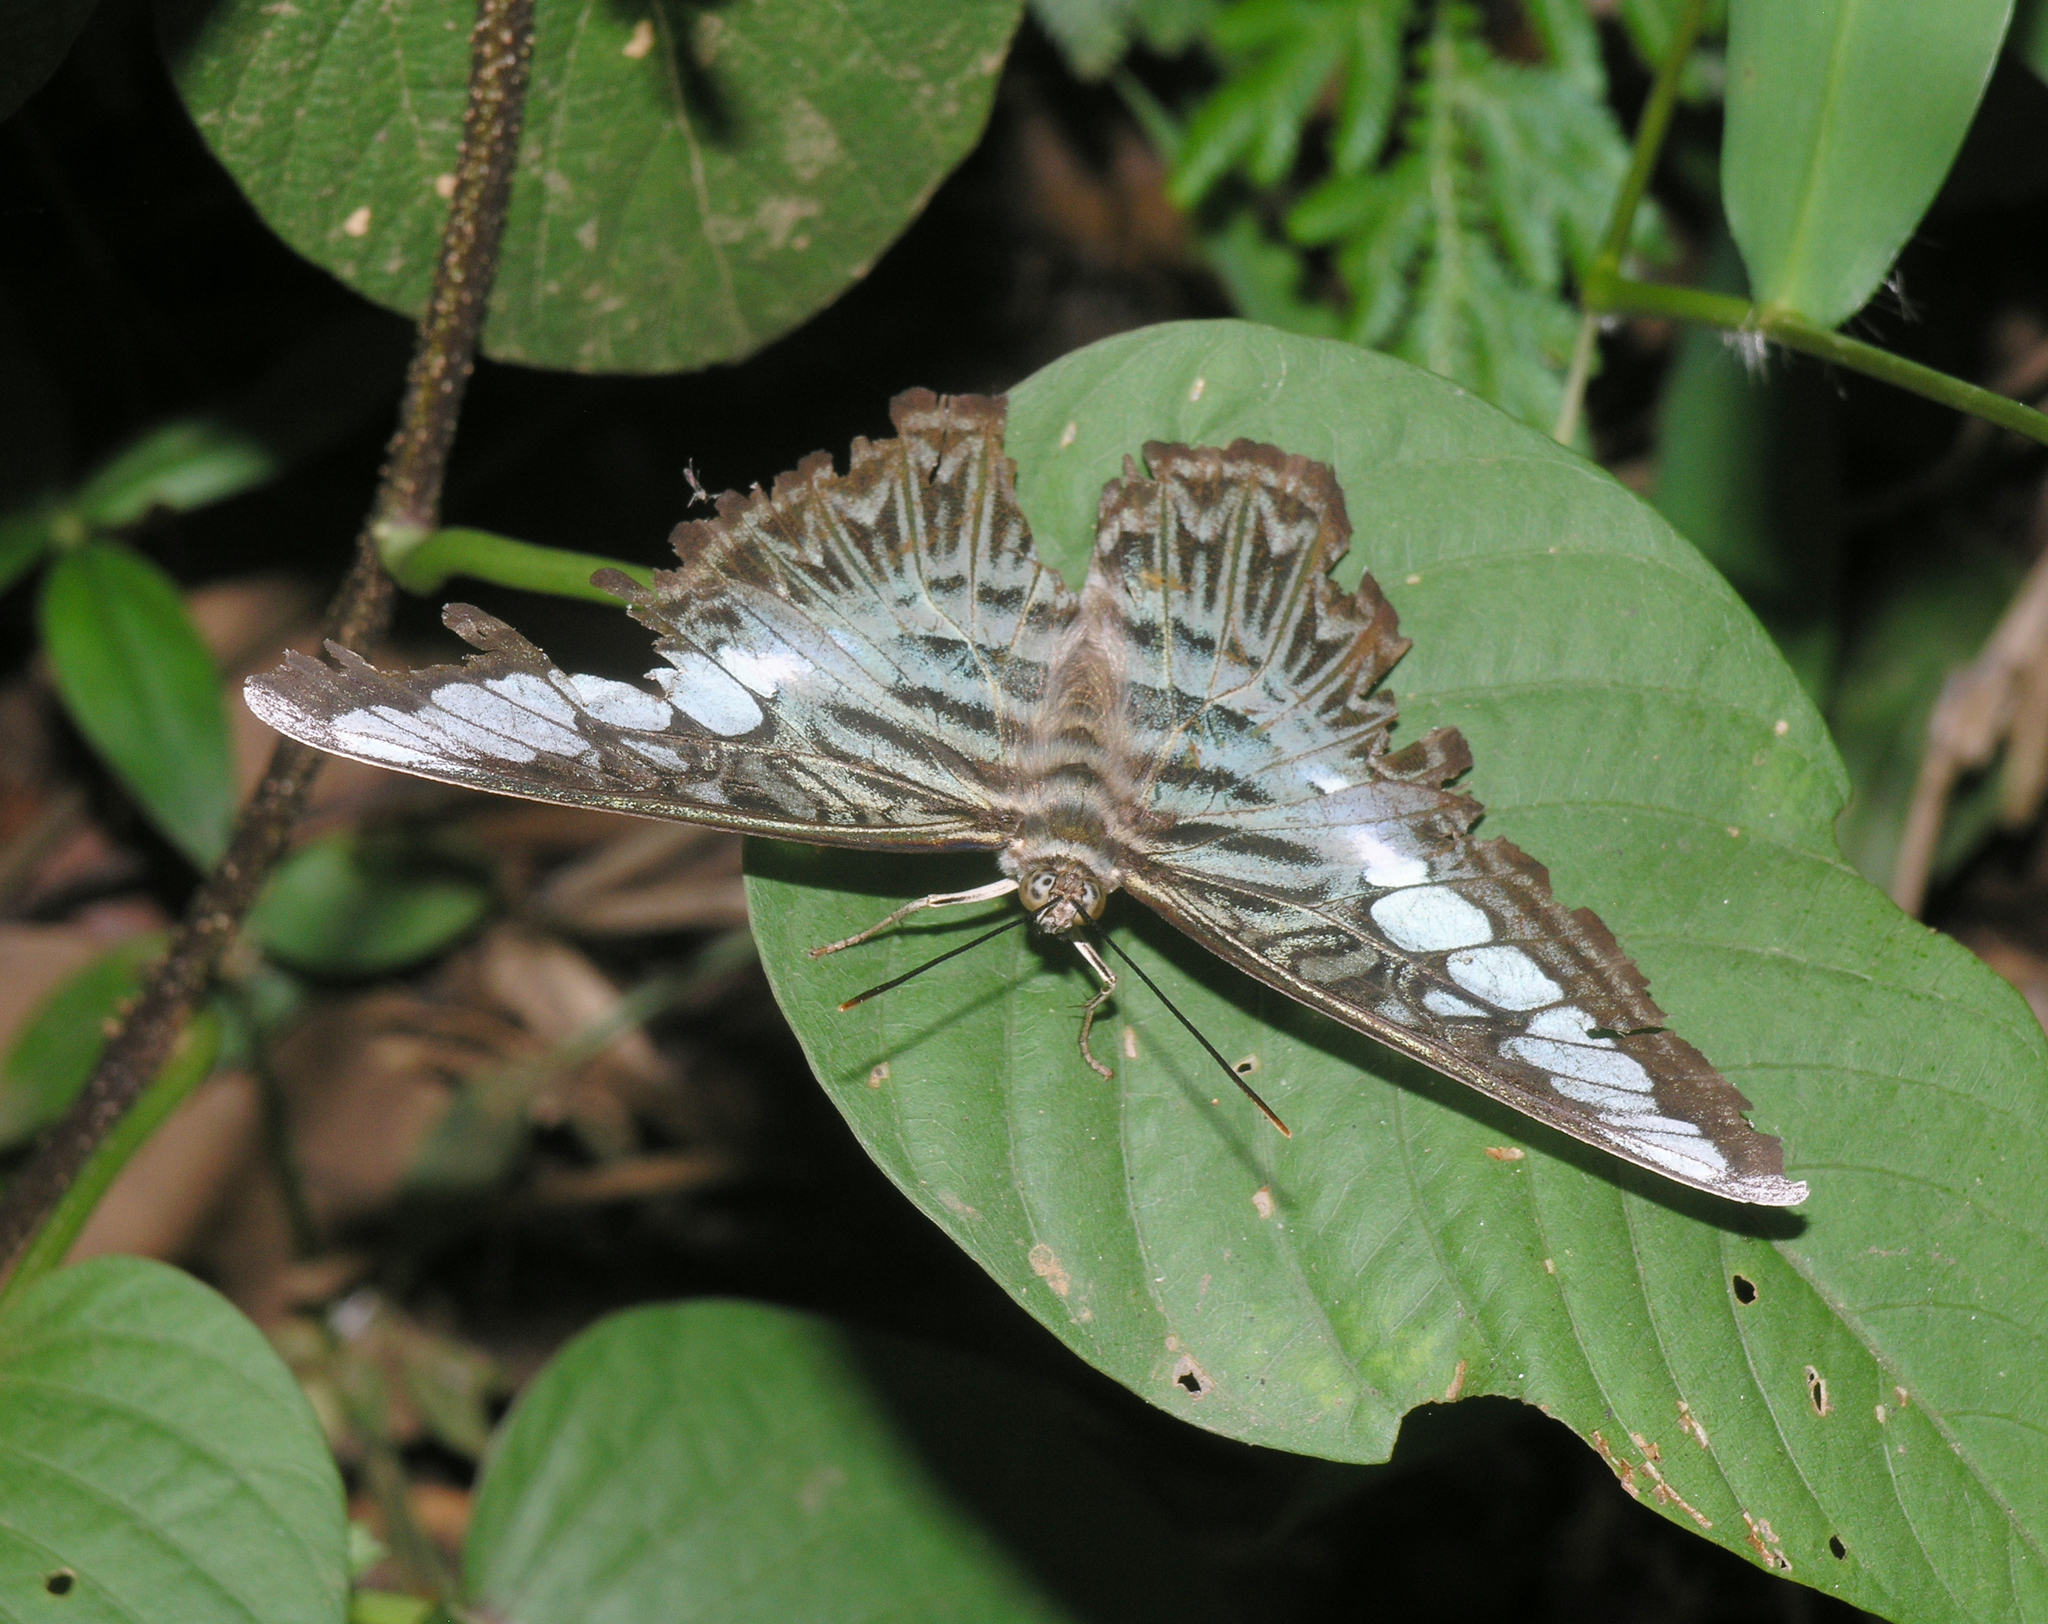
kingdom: Animalia
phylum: Arthropoda
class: Insecta
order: Lepidoptera
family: Nymphalidae
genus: Kallima
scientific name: Kallima sylvia
